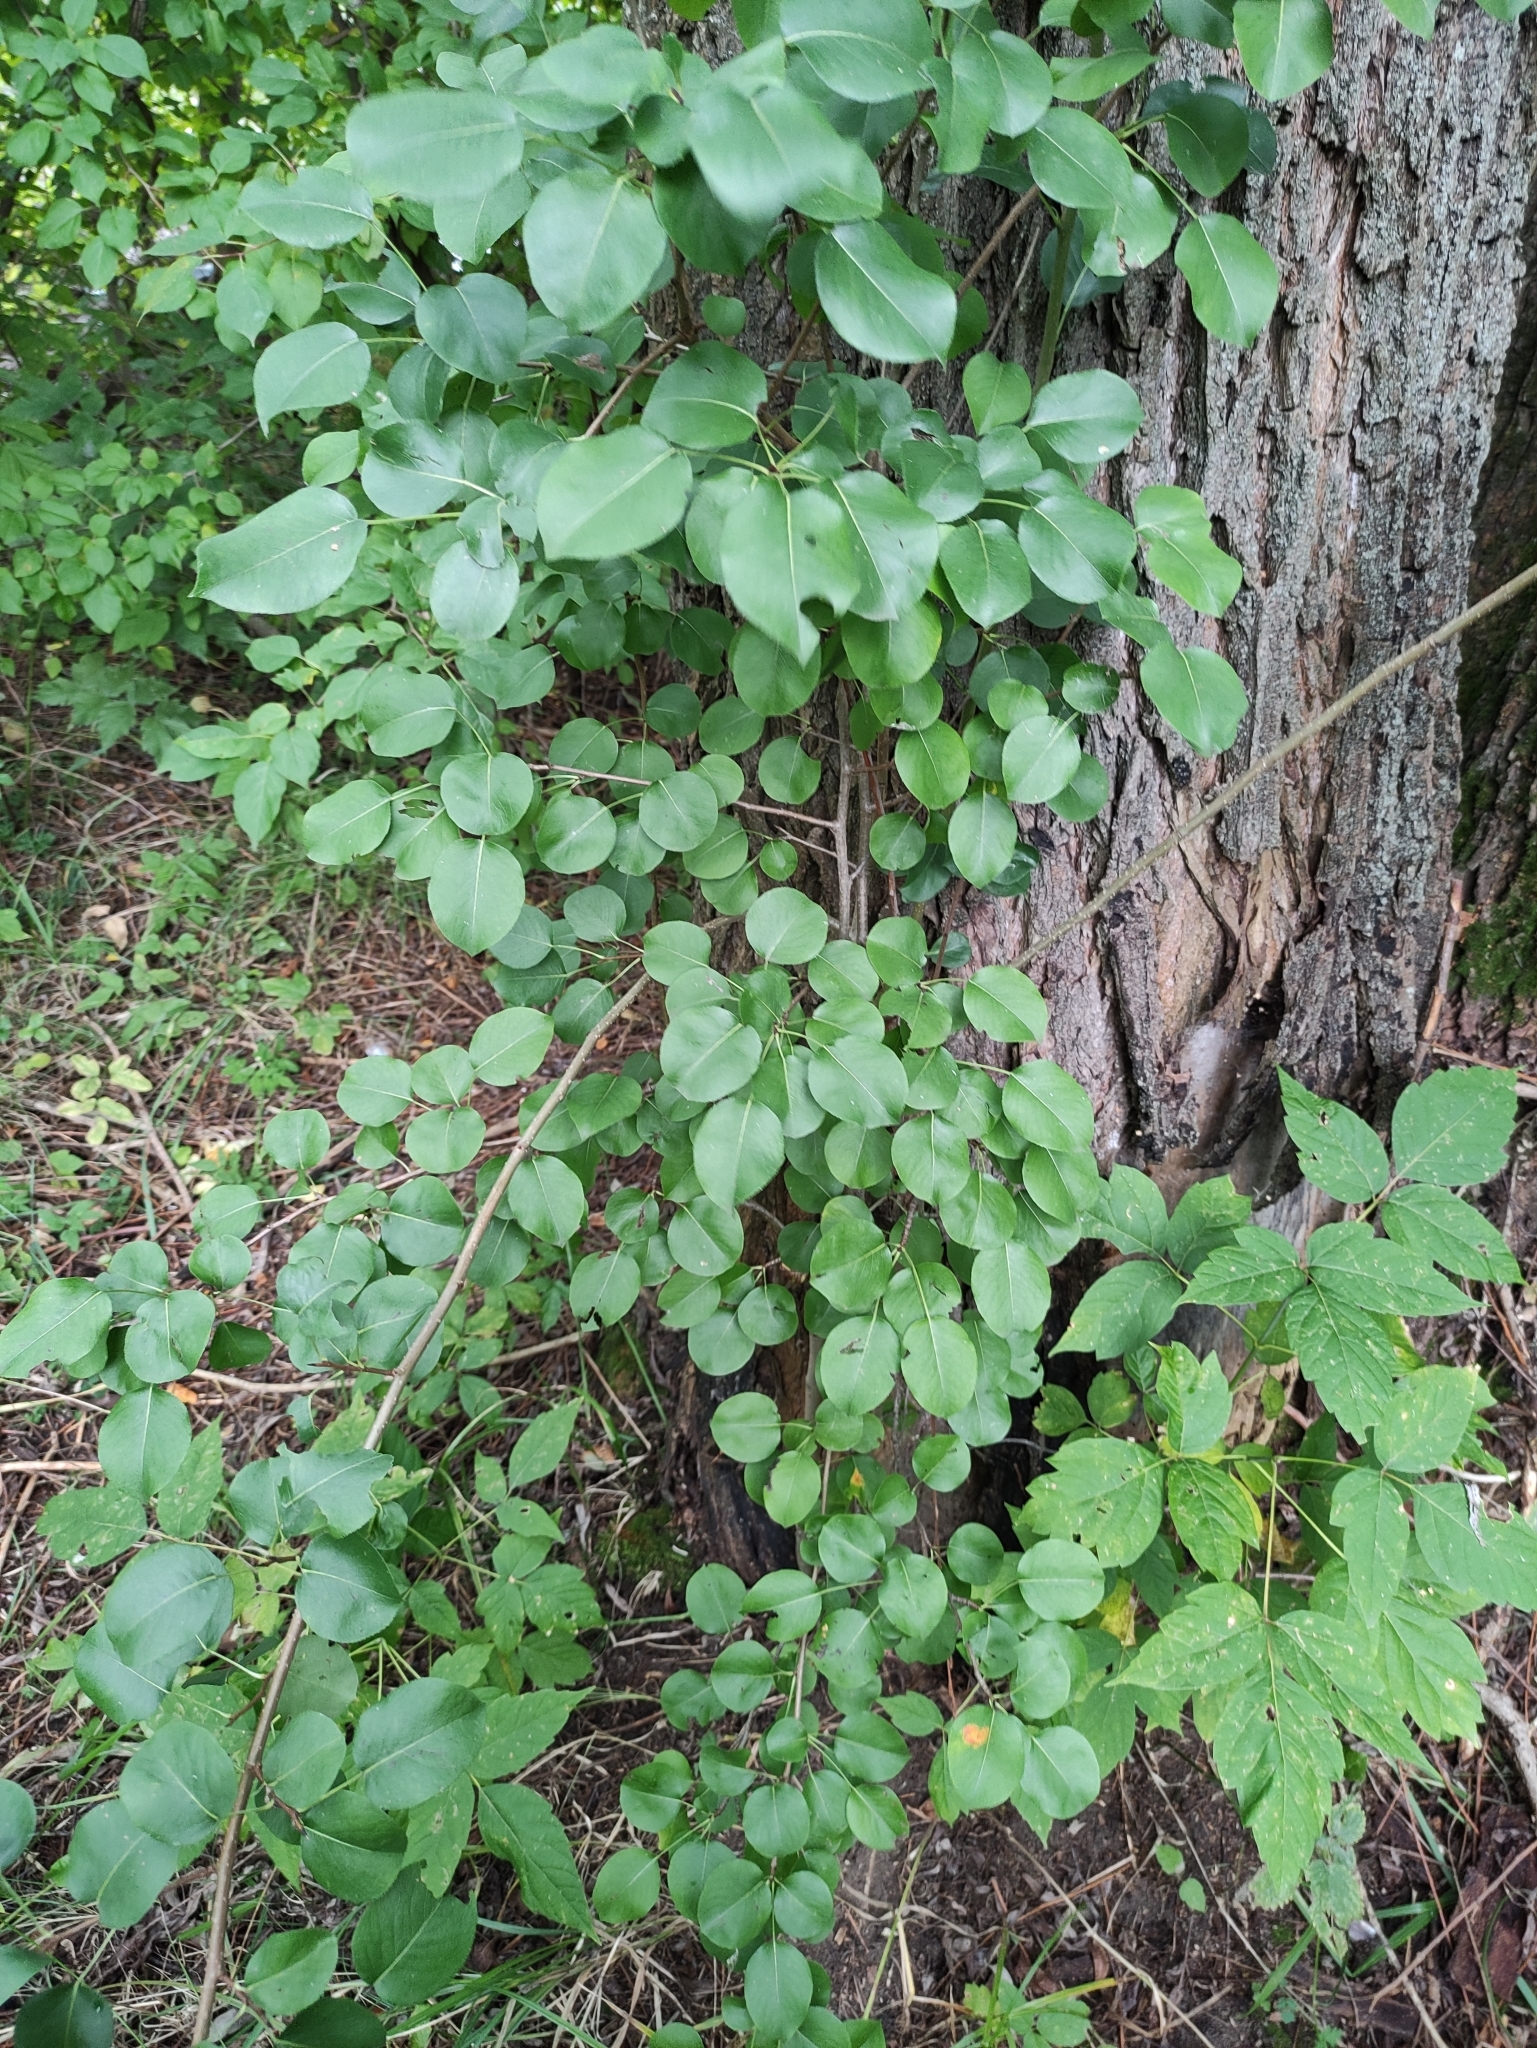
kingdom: Plantae
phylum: Tracheophyta
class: Magnoliopsida
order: Rosales
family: Rosaceae
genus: Pyrus
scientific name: Pyrus communis
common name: Pear
